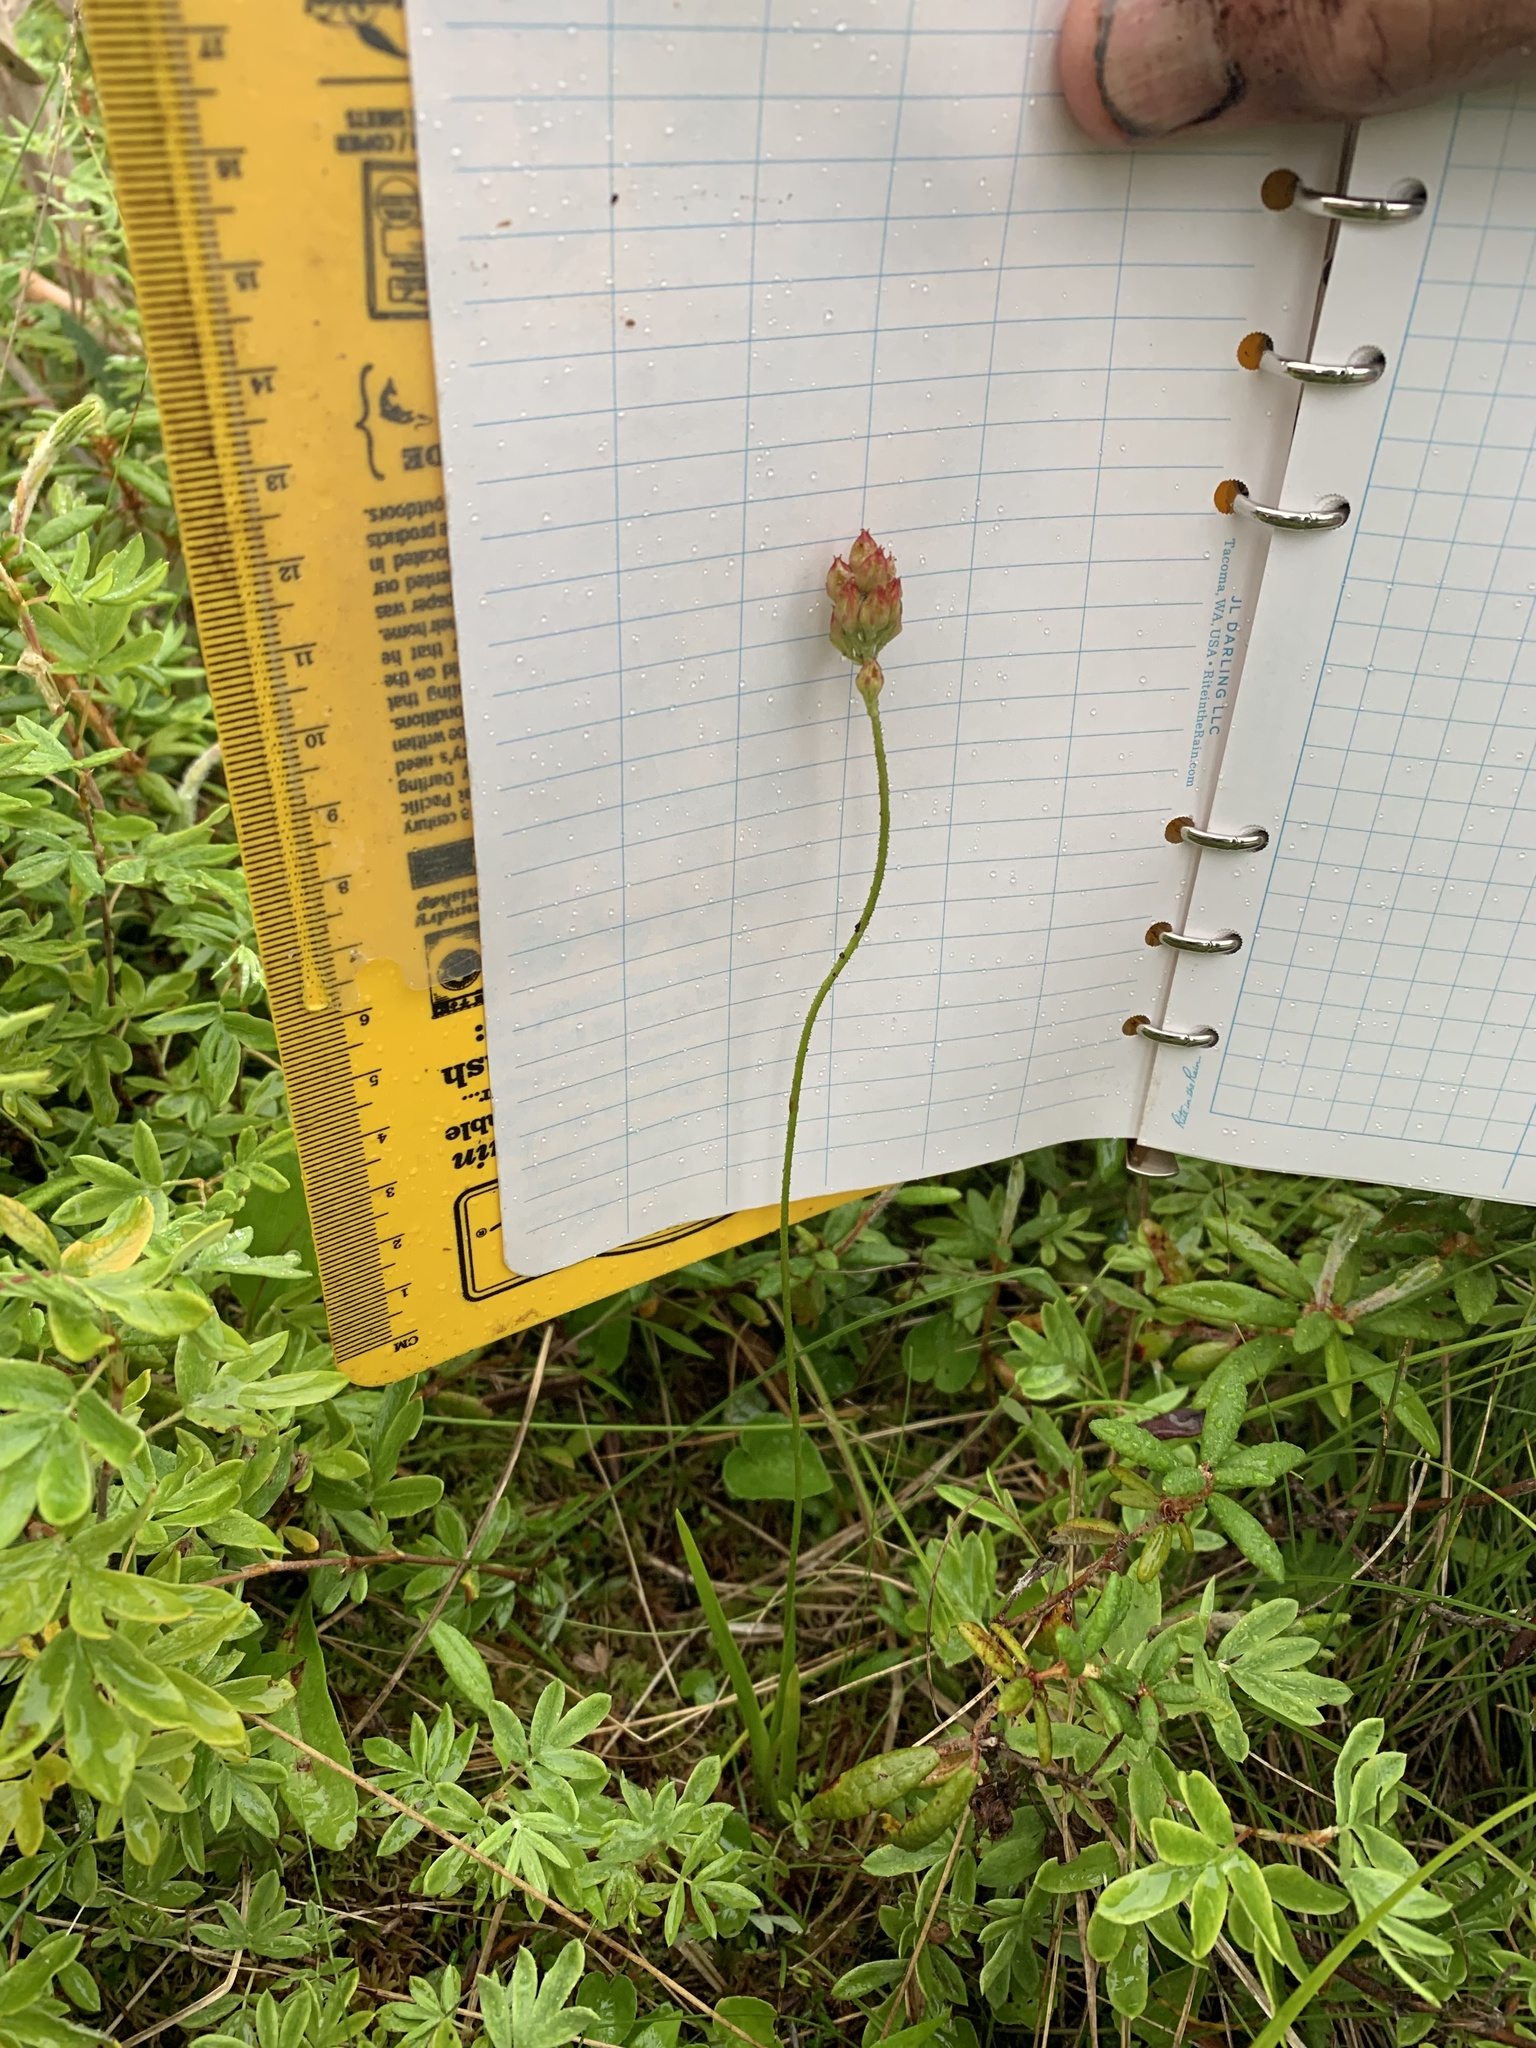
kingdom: Plantae
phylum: Tracheophyta
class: Liliopsida
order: Alismatales
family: Tofieldiaceae
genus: Triantha
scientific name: Triantha glutinosa
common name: Glutinous tofieldia
